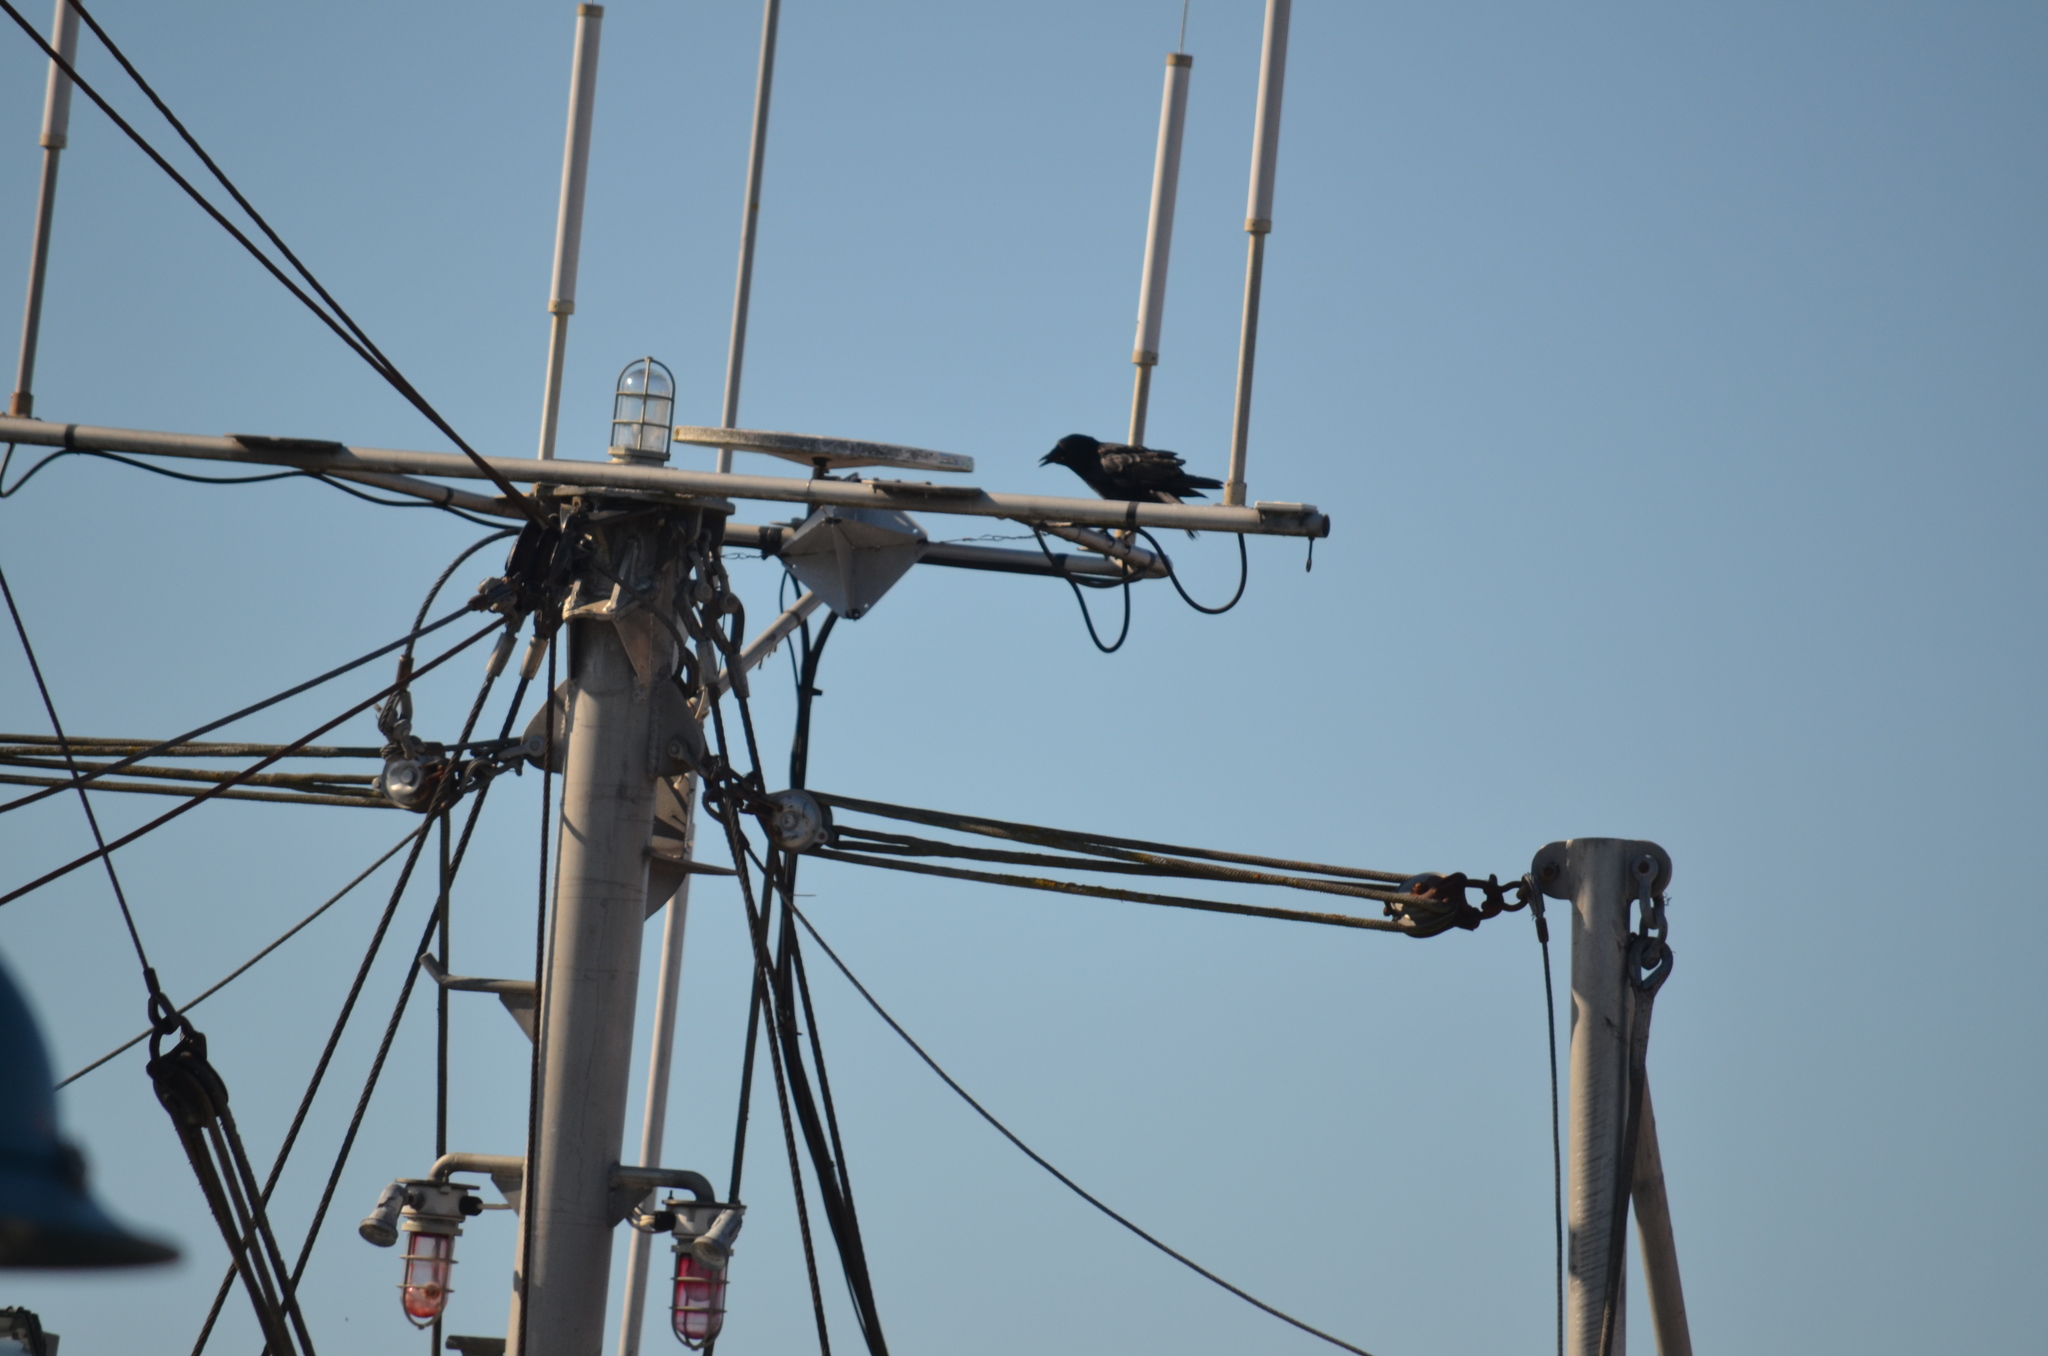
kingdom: Animalia
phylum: Chordata
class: Aves
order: Passeriformes
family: Corvidae
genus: Corvus
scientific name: Corvus brachyrhynchos
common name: American crow
